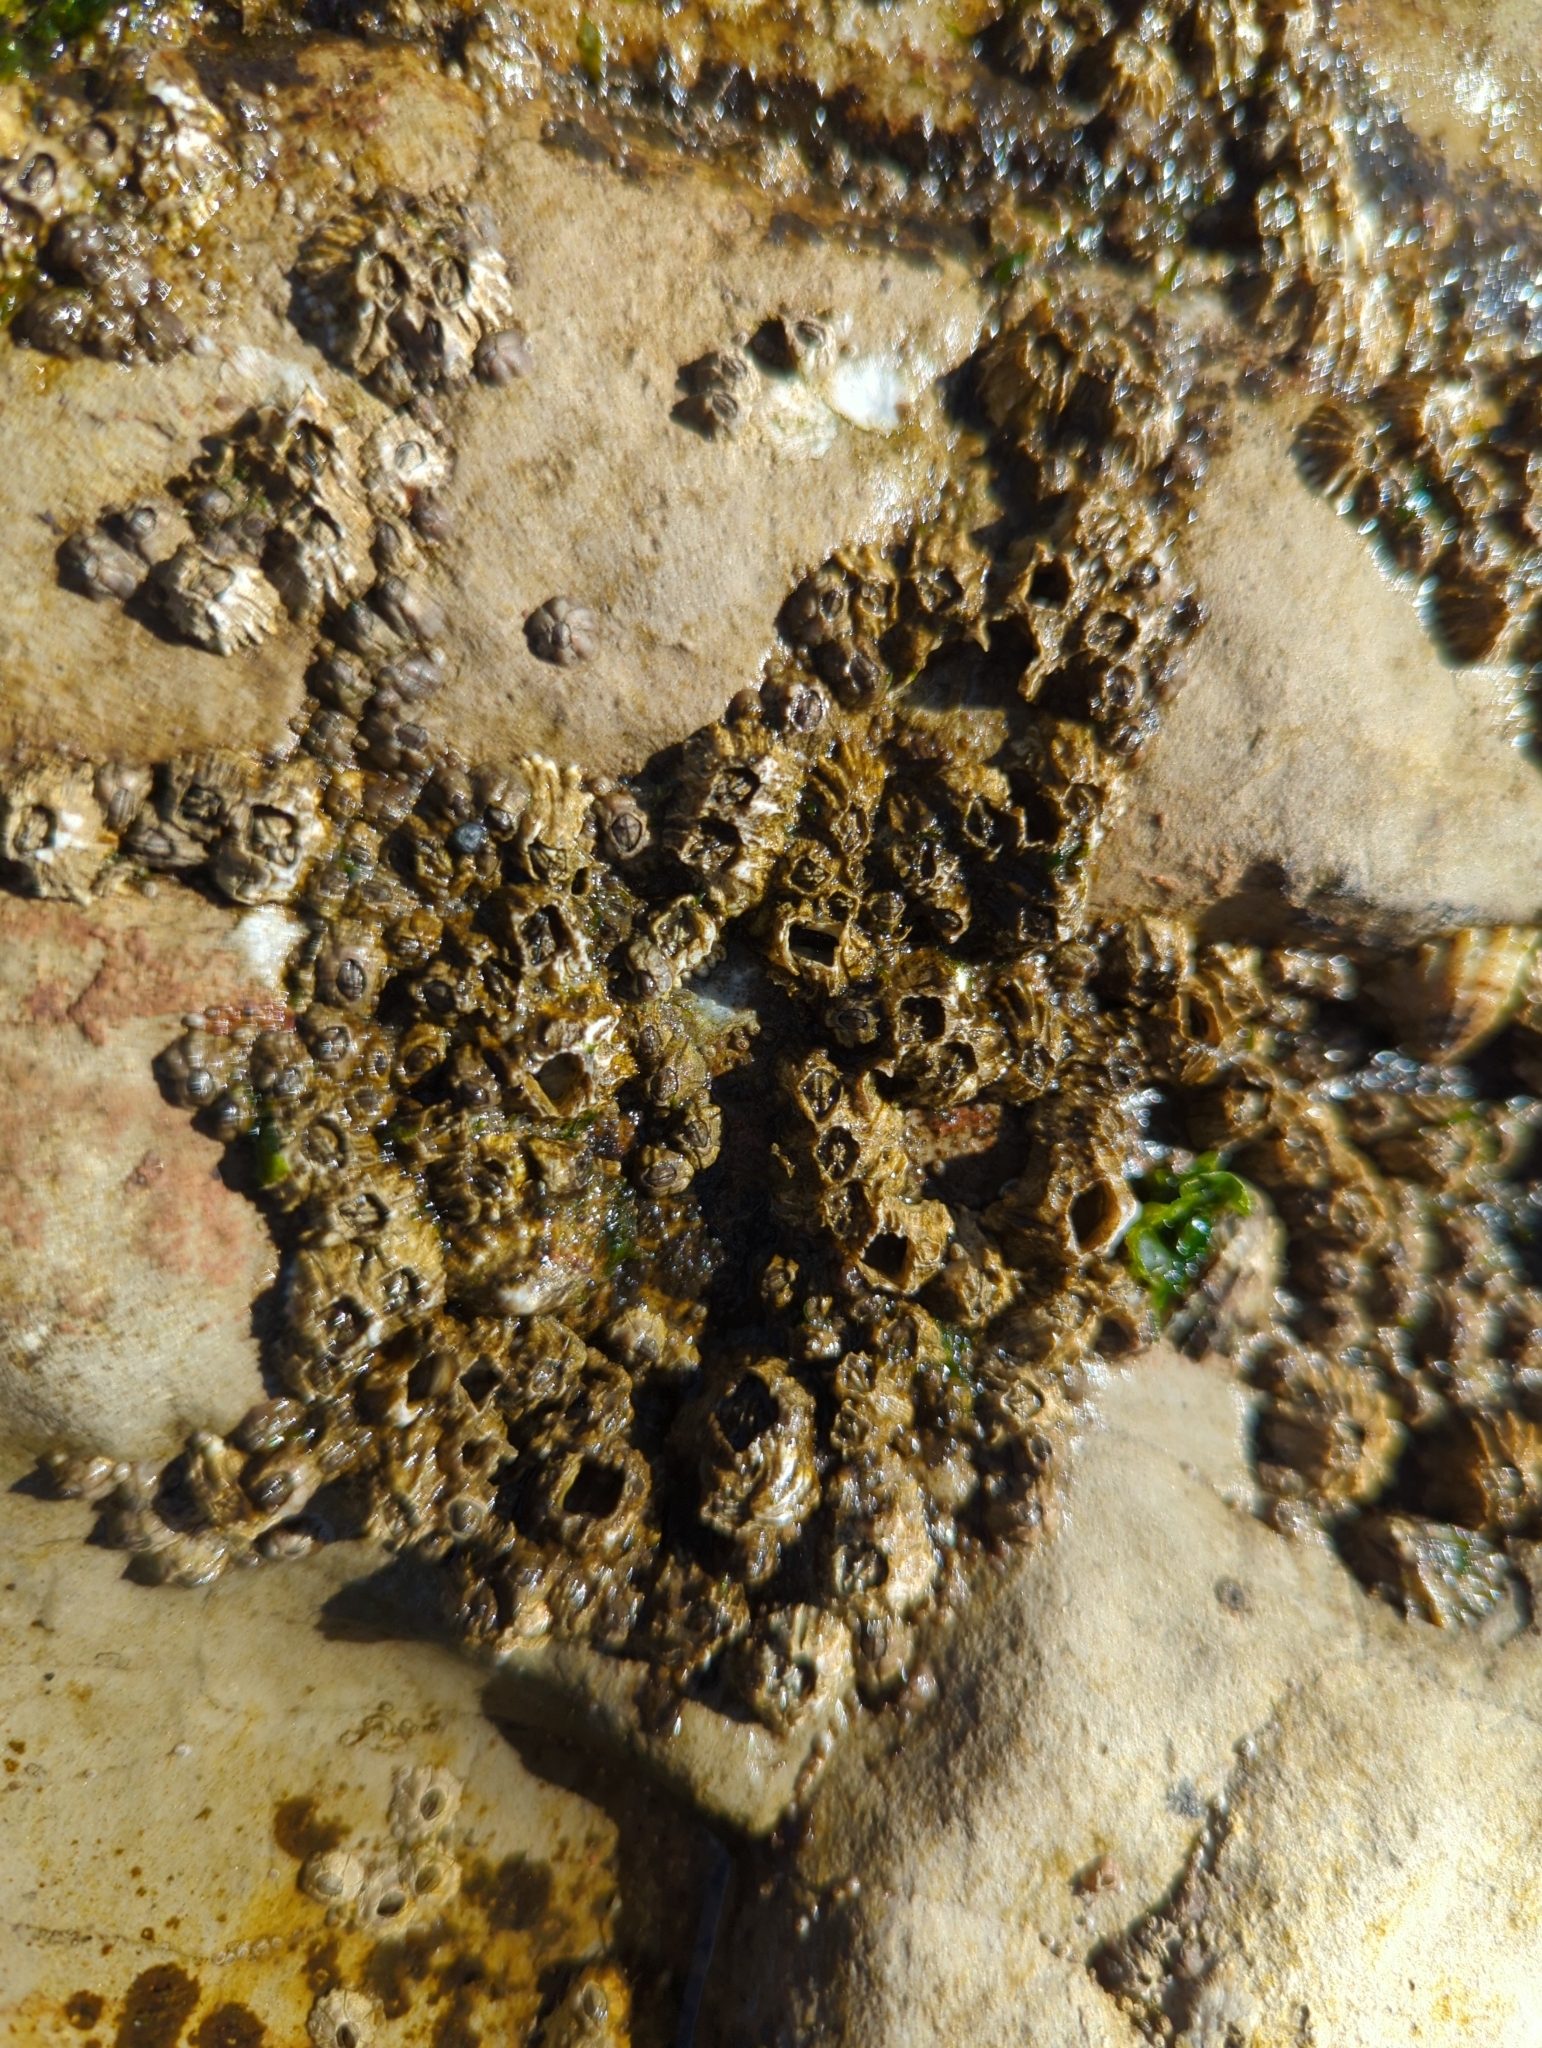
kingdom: Animalia
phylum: Arthropoda
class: Maxillopoda
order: Sessilia
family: Balanidae
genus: Balanus
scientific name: Balanus glandula
